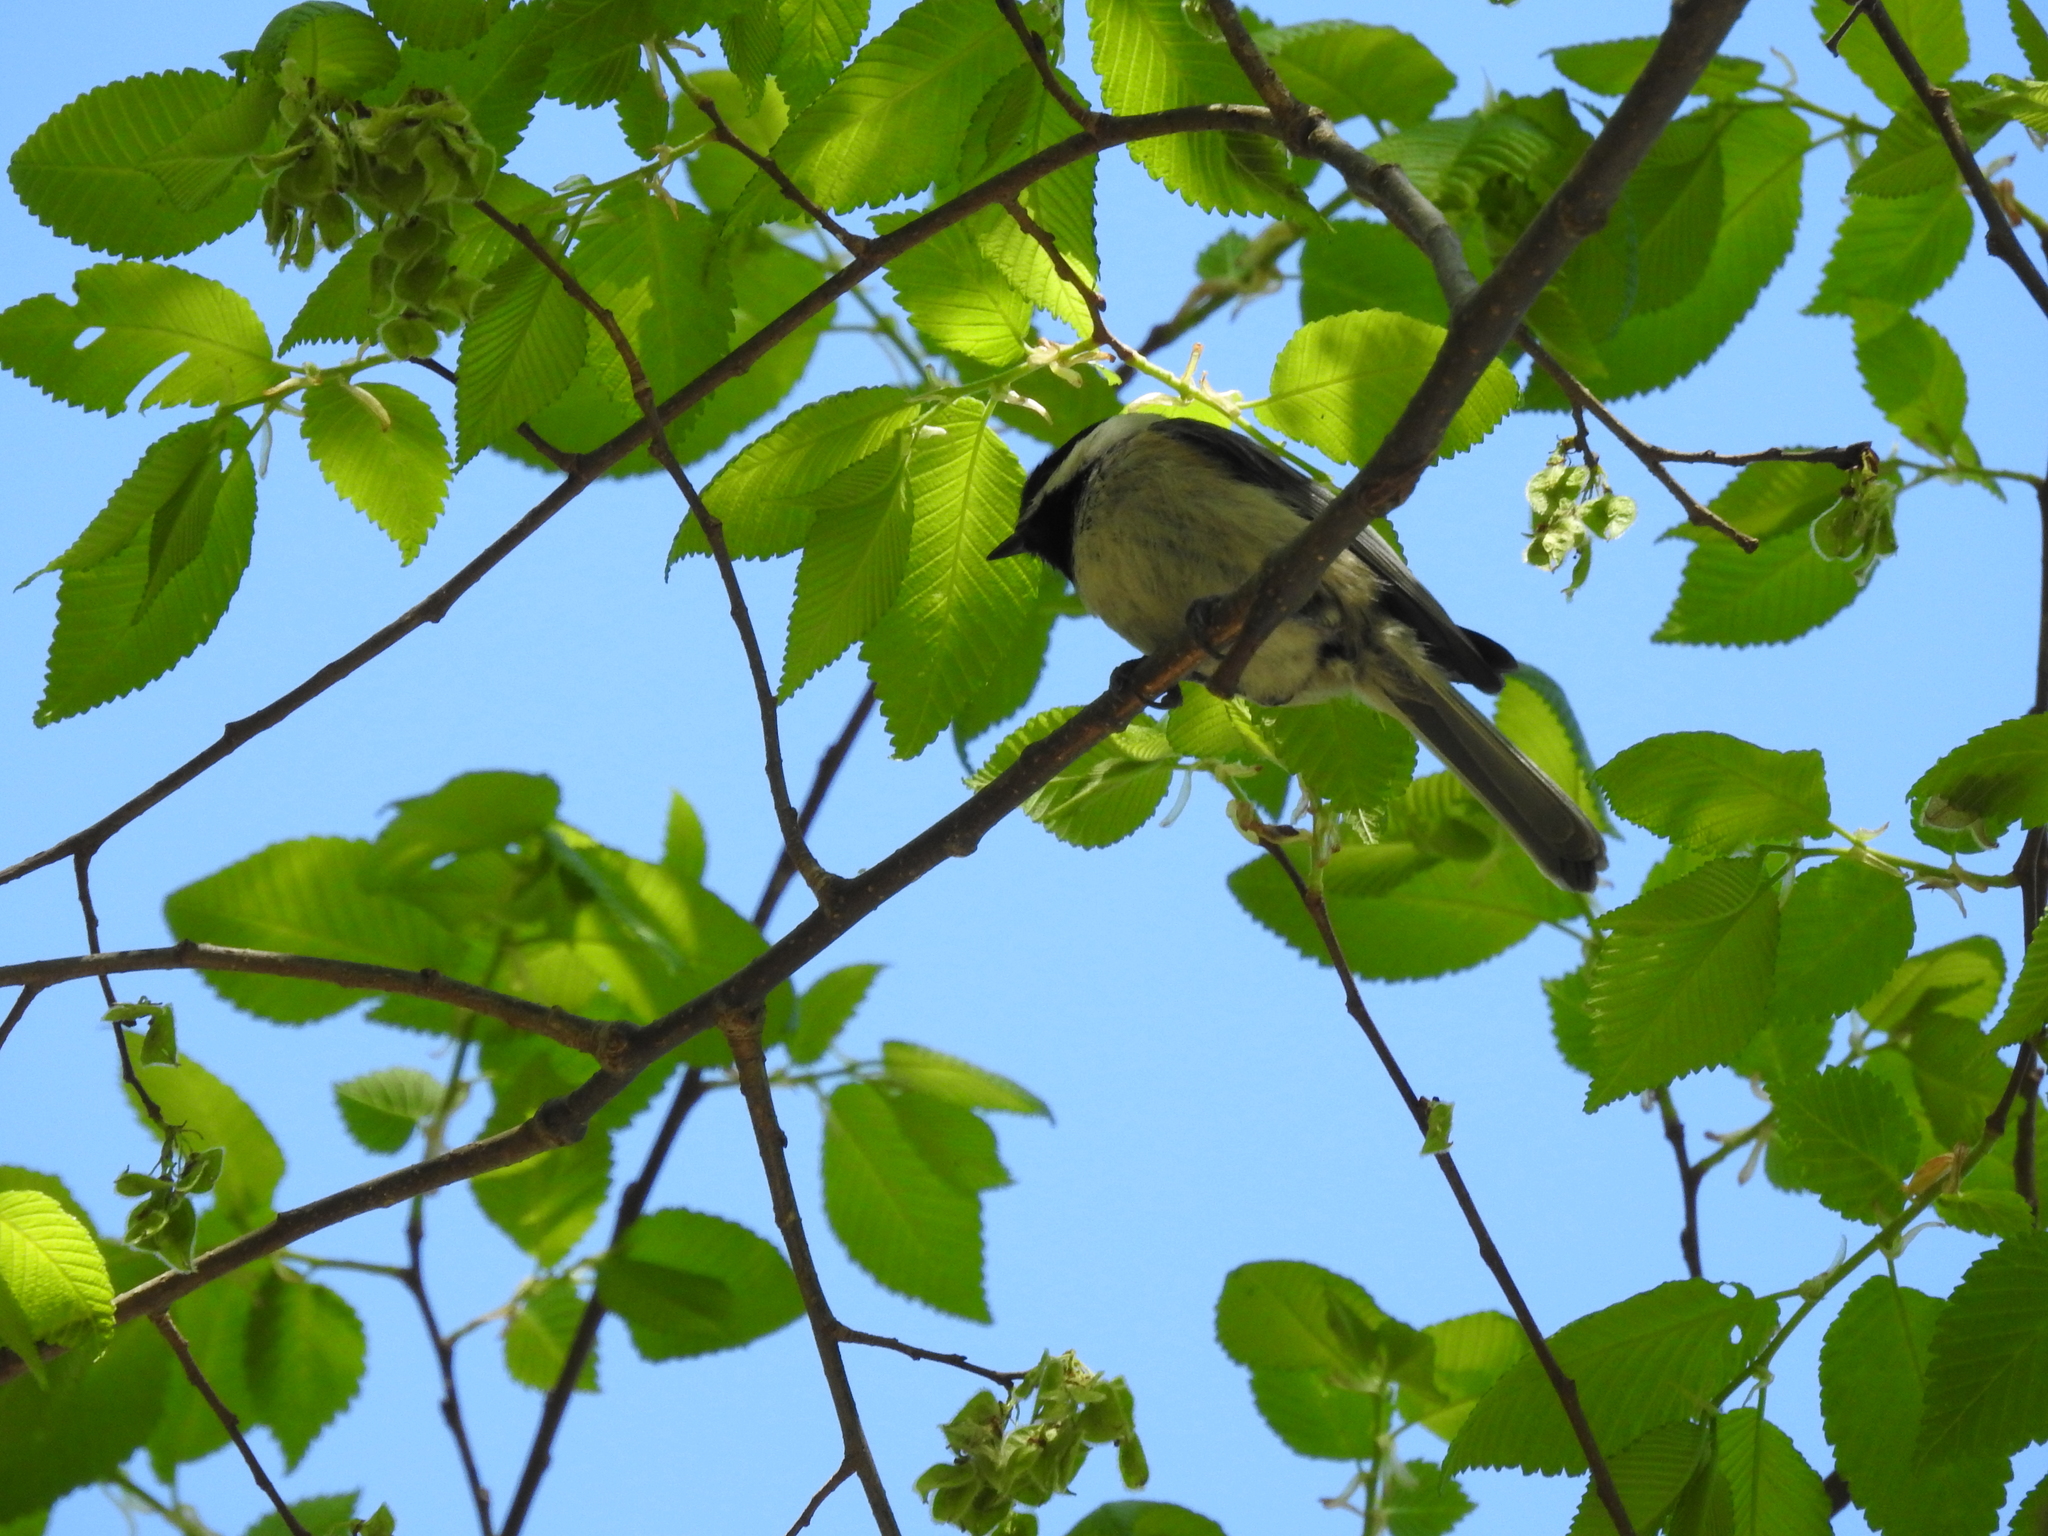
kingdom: Animalia
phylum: Chordata
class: Aves
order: Passeriformes
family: Paridae
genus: Poecile
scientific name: Poecile carolinensis
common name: Carolina chickadee
